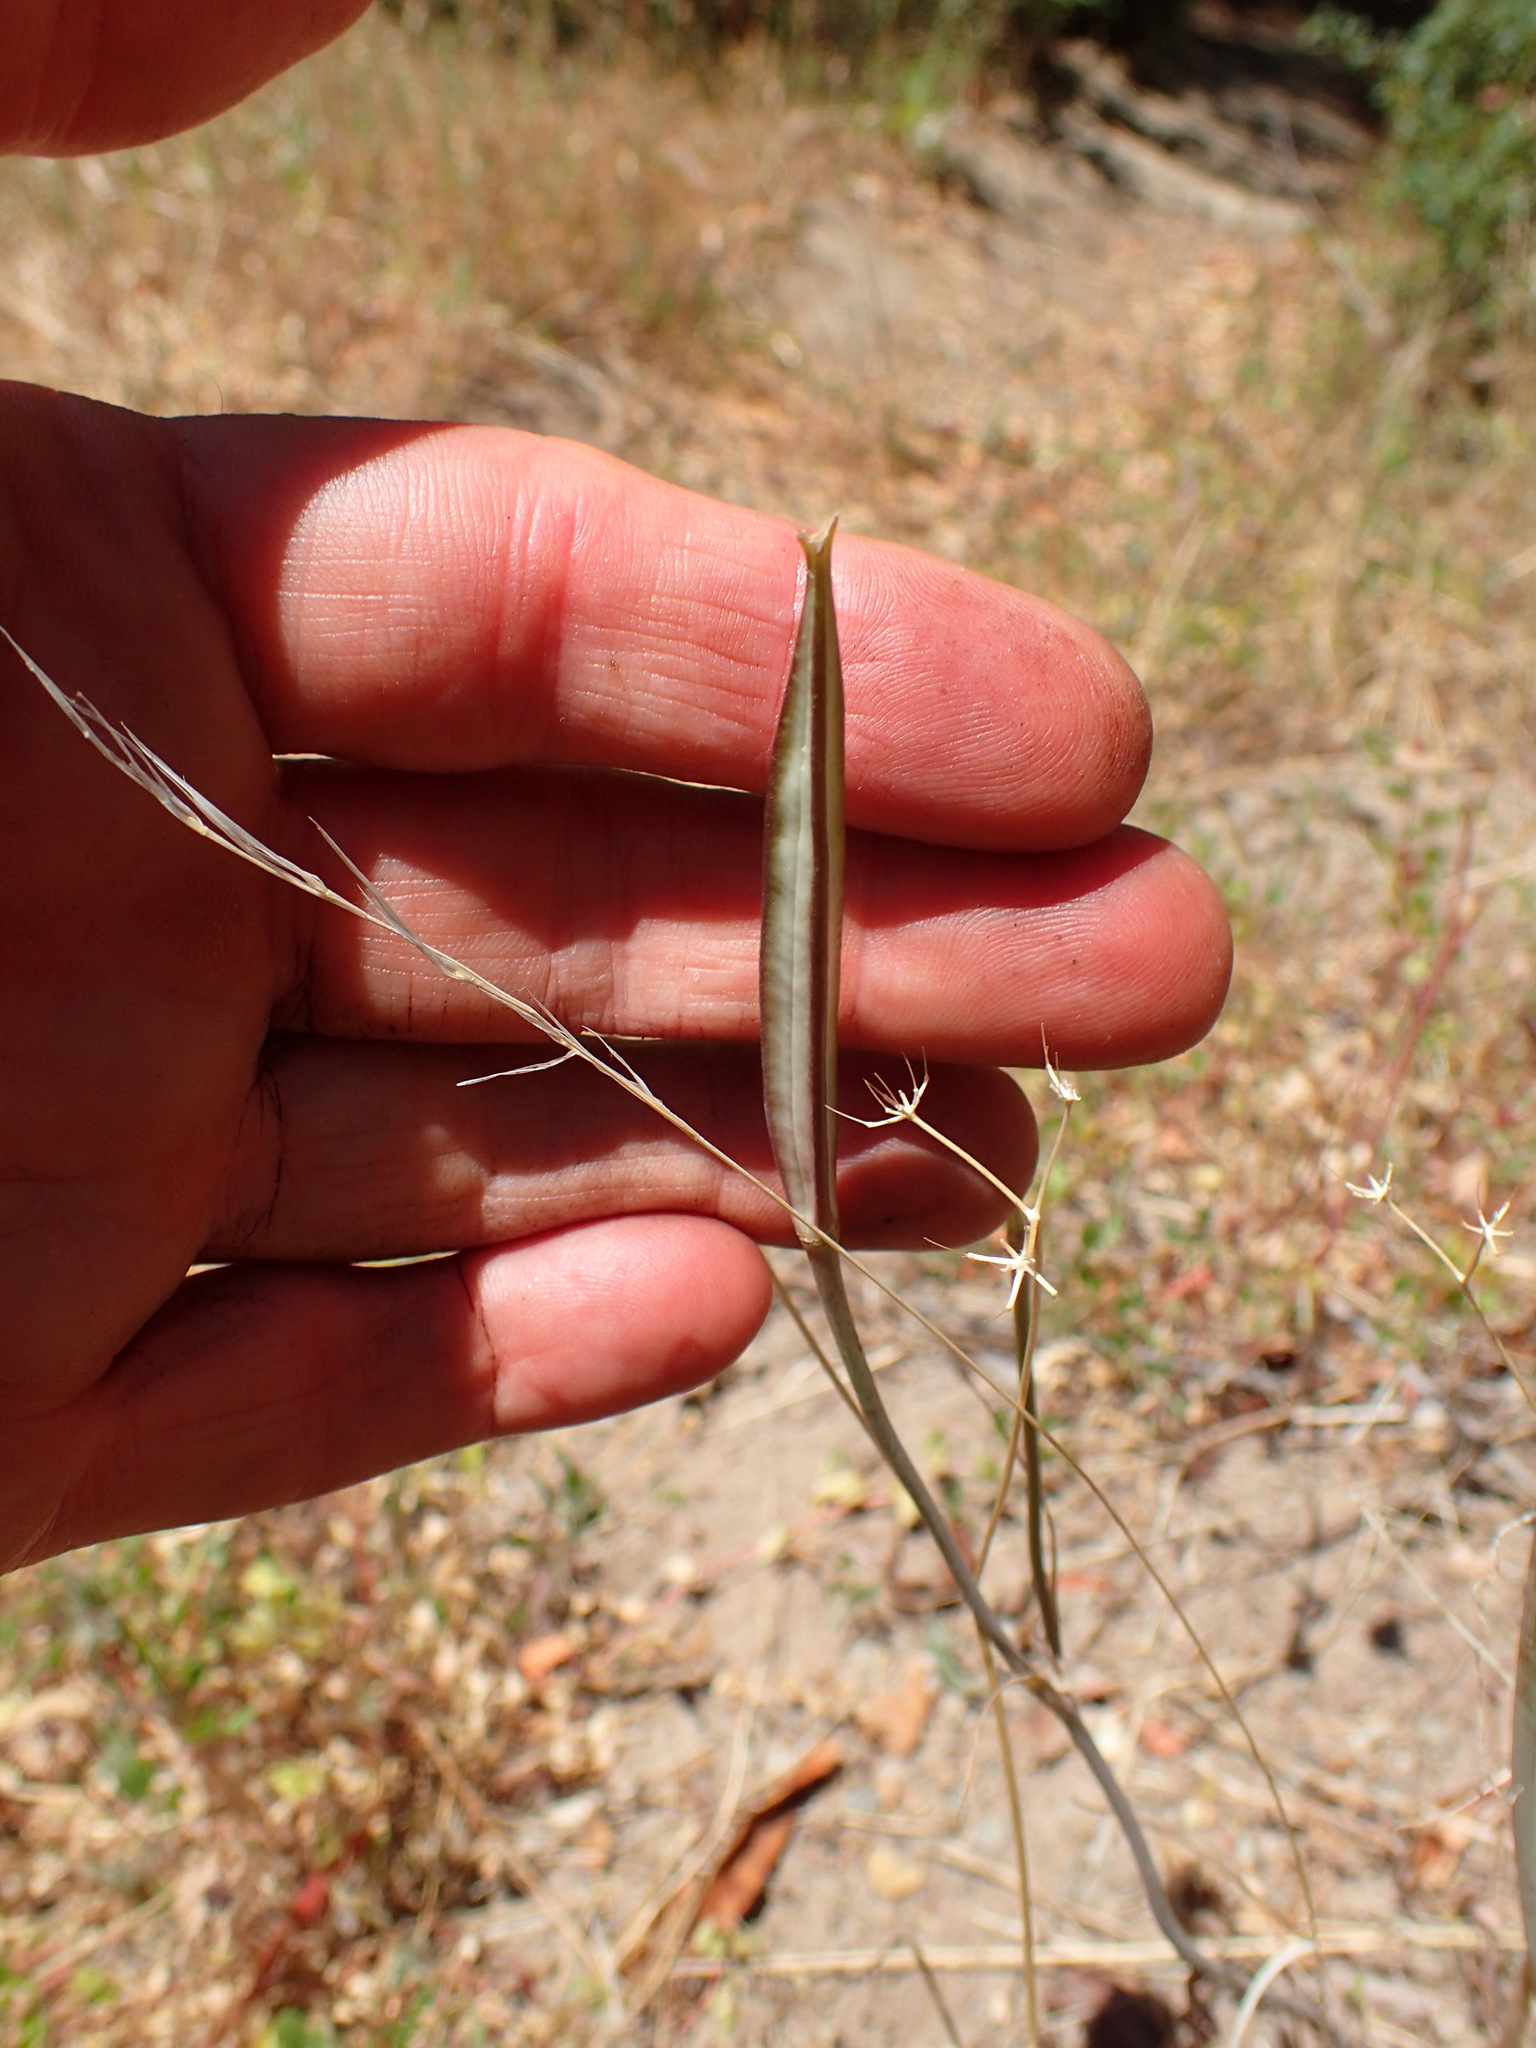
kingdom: Plantae
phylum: Tracheophyta
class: Liliopsida
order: Liliales
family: Liliaceae
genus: Calochortus
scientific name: Calochortus venustus
